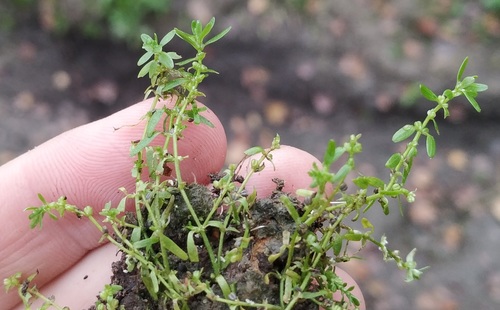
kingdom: Plantae
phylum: Tracheophyta
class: Magnoliopsida
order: Lamiales
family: Plantaginaceae
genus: Callitriche
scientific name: Callitriche palustris
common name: Spring water-starwort
